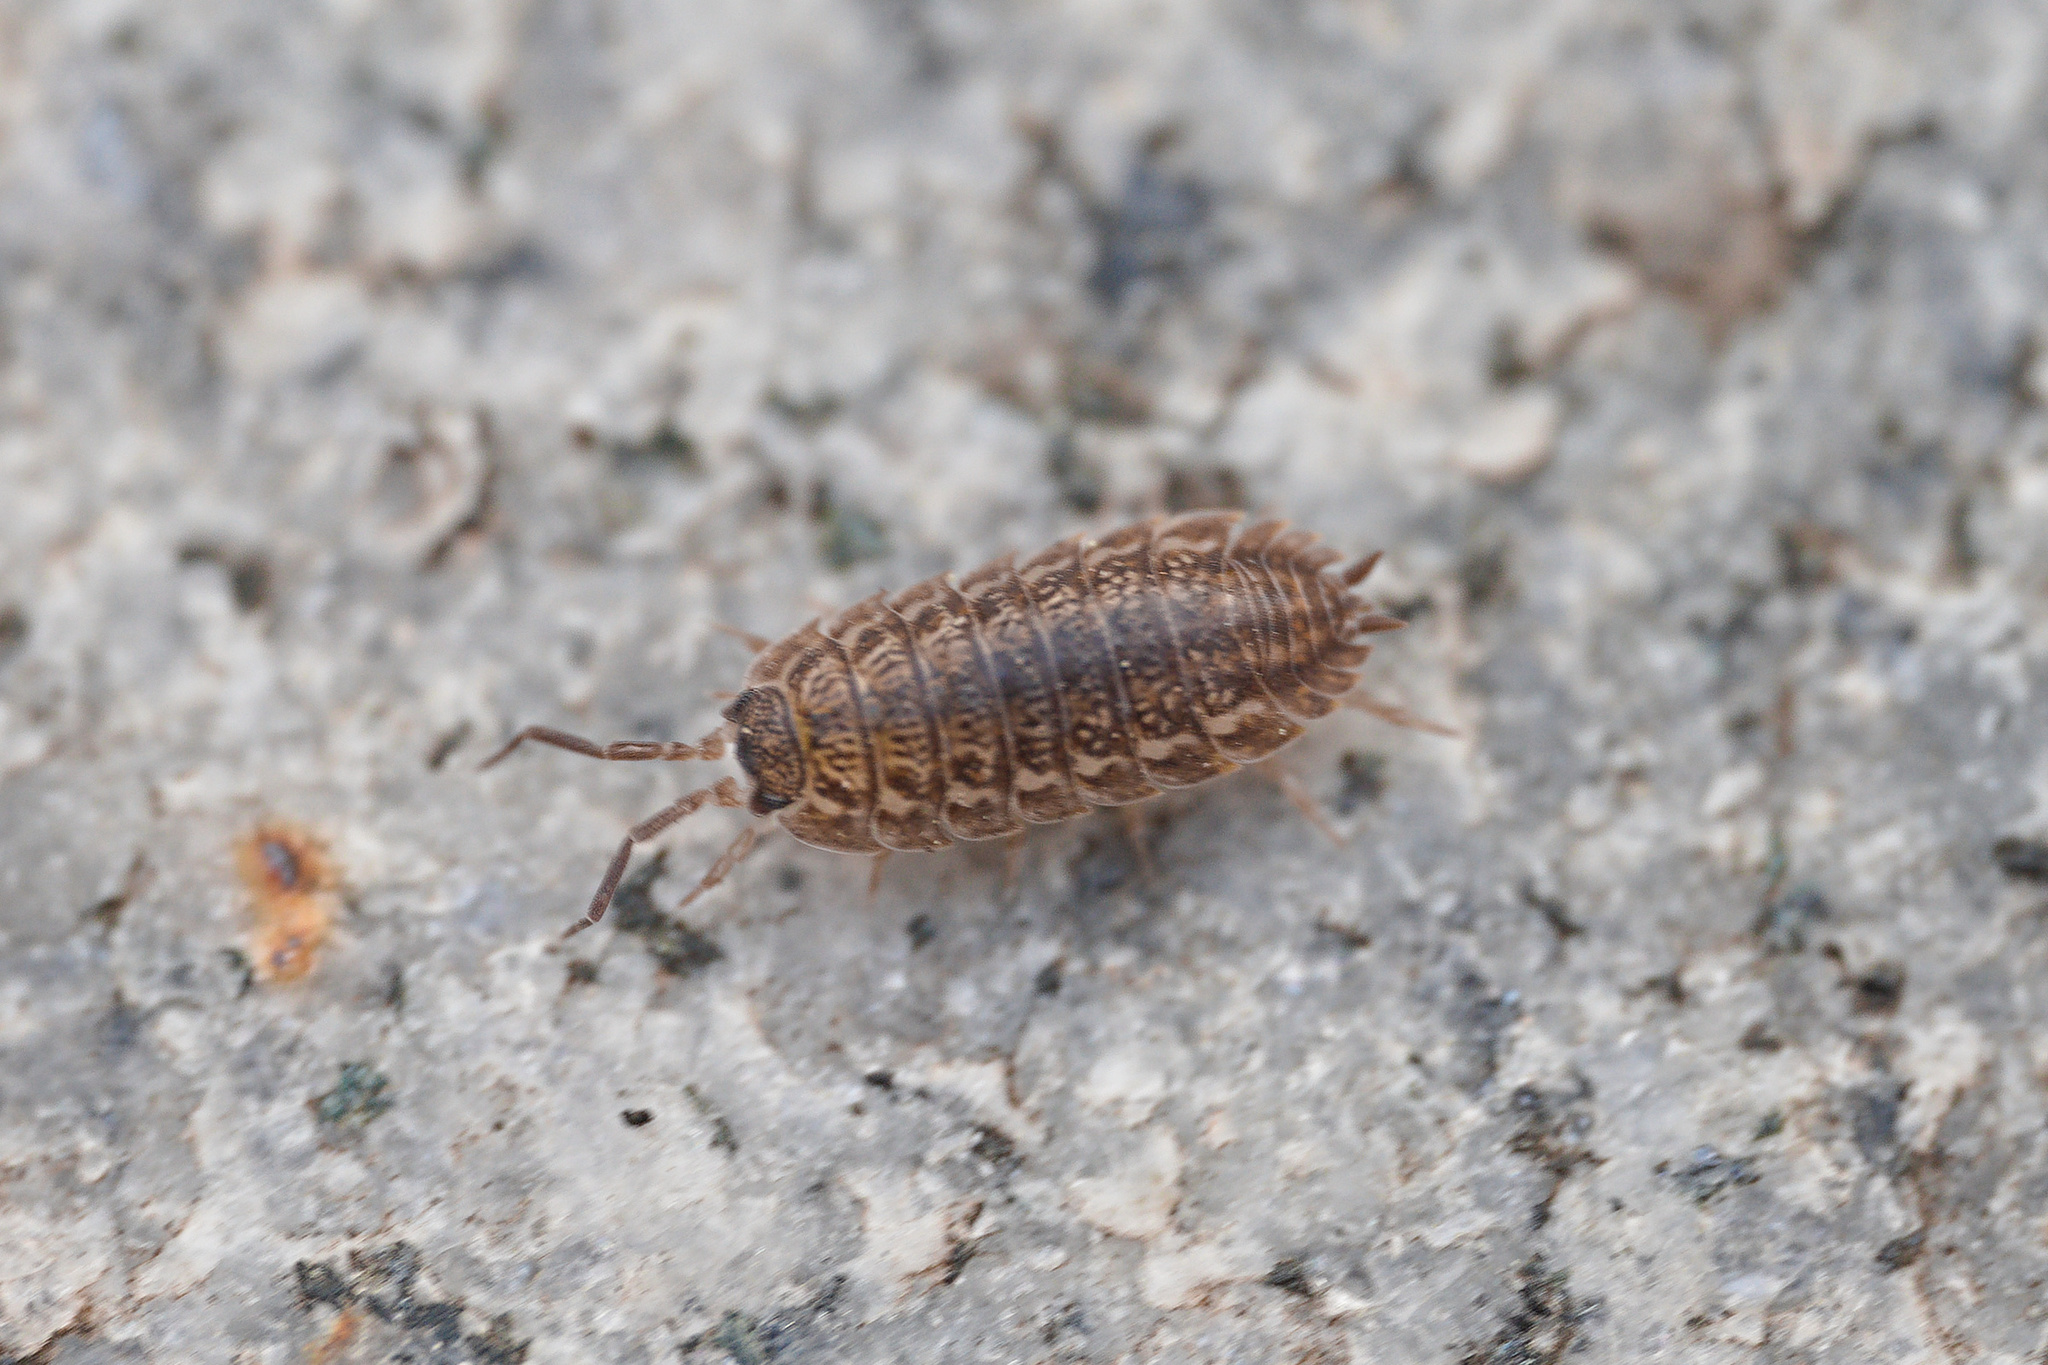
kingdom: Animalia
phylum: Arthropoda
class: Malacostraca
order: Isopoda
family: Trachelipodidae
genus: Trachelipus
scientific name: Trachelipus rathkii
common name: Isopod
